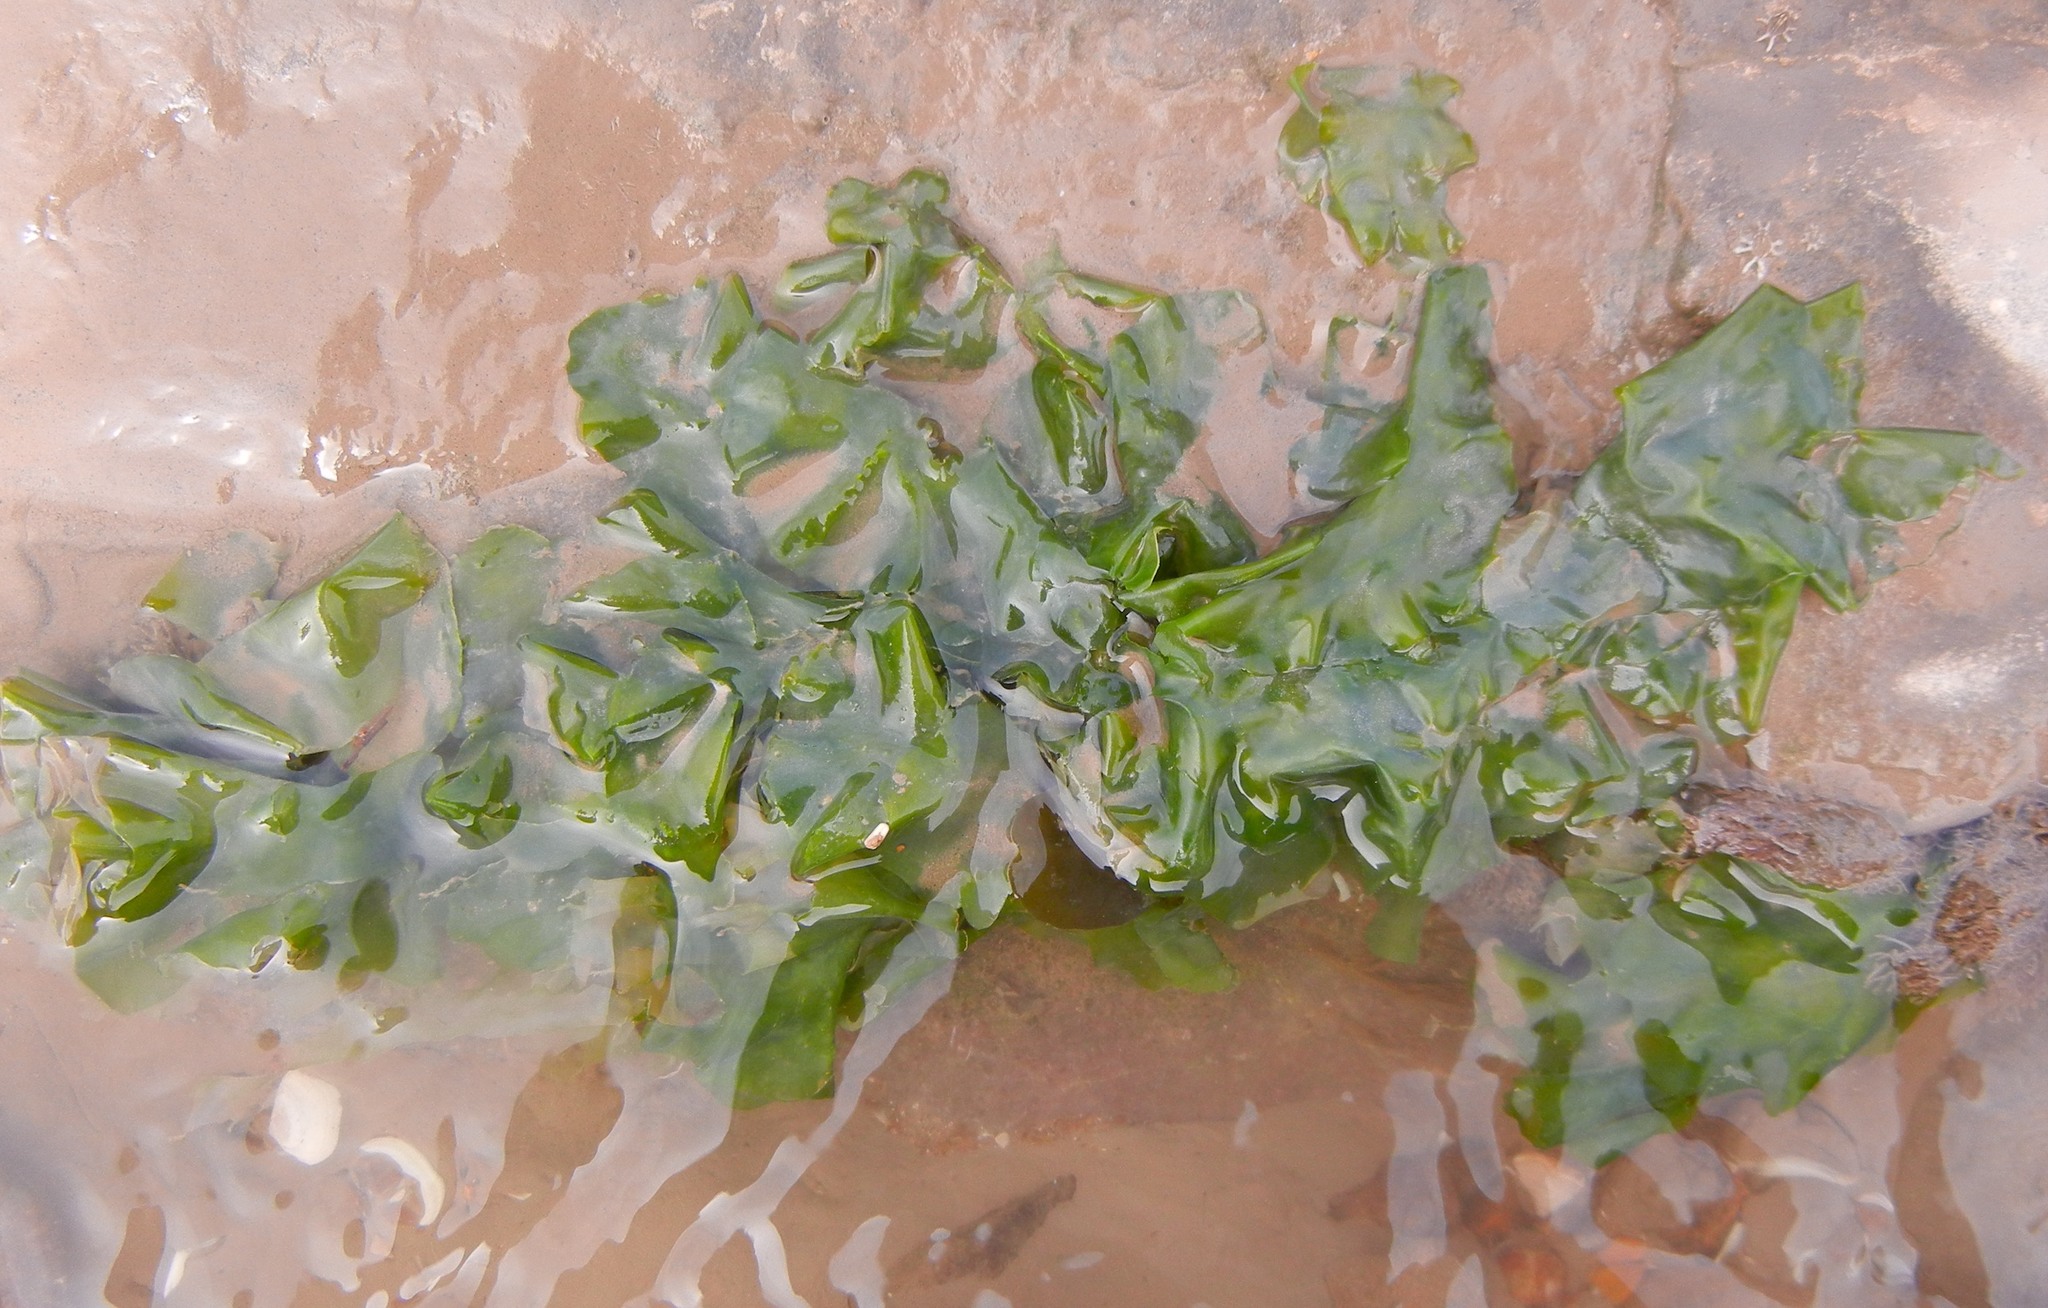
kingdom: Plantae
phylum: Chlorophyta
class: Ulvophyceae
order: Ulvales
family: Ulvaceae
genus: Ulva
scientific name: Ulva lactuca
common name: Sea lettuce
